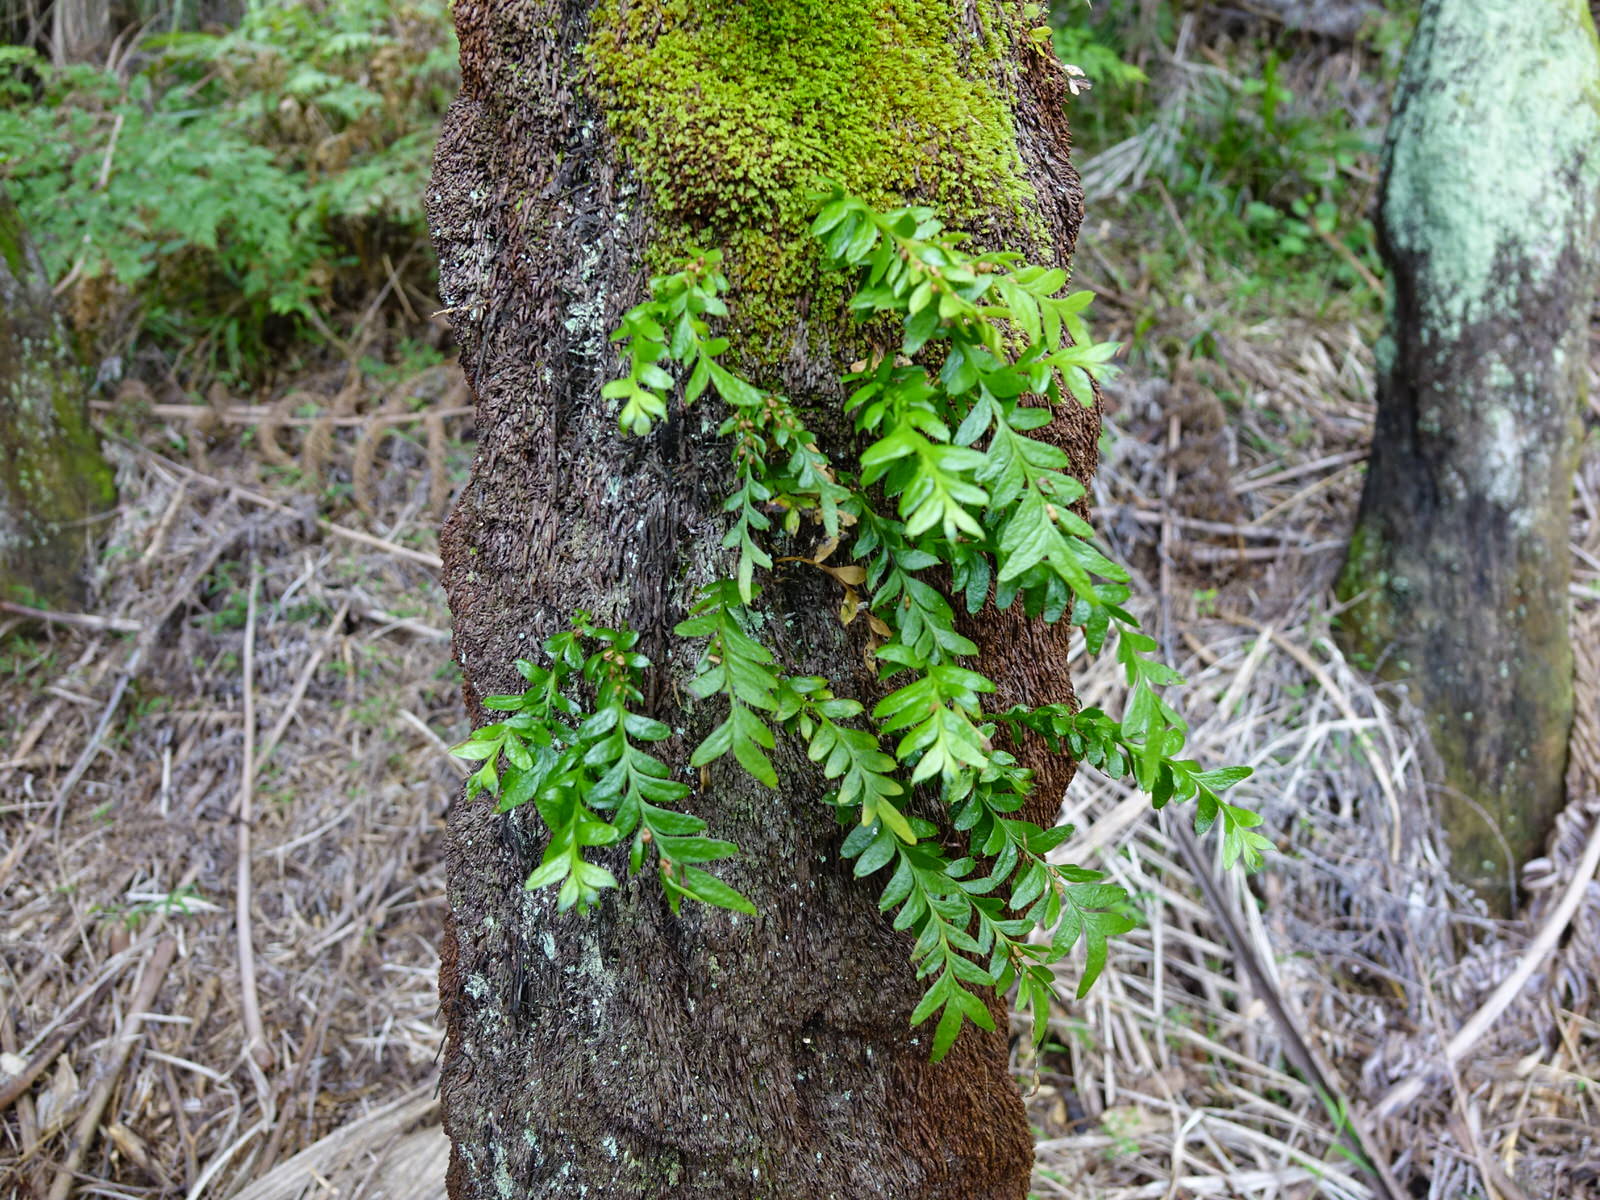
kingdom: Plantae
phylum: Tracheophyta
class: Polypodiopsida
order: Psilotales
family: Psilotaceae
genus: Tmesipteris
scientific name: Tmesipteris lanceolata
